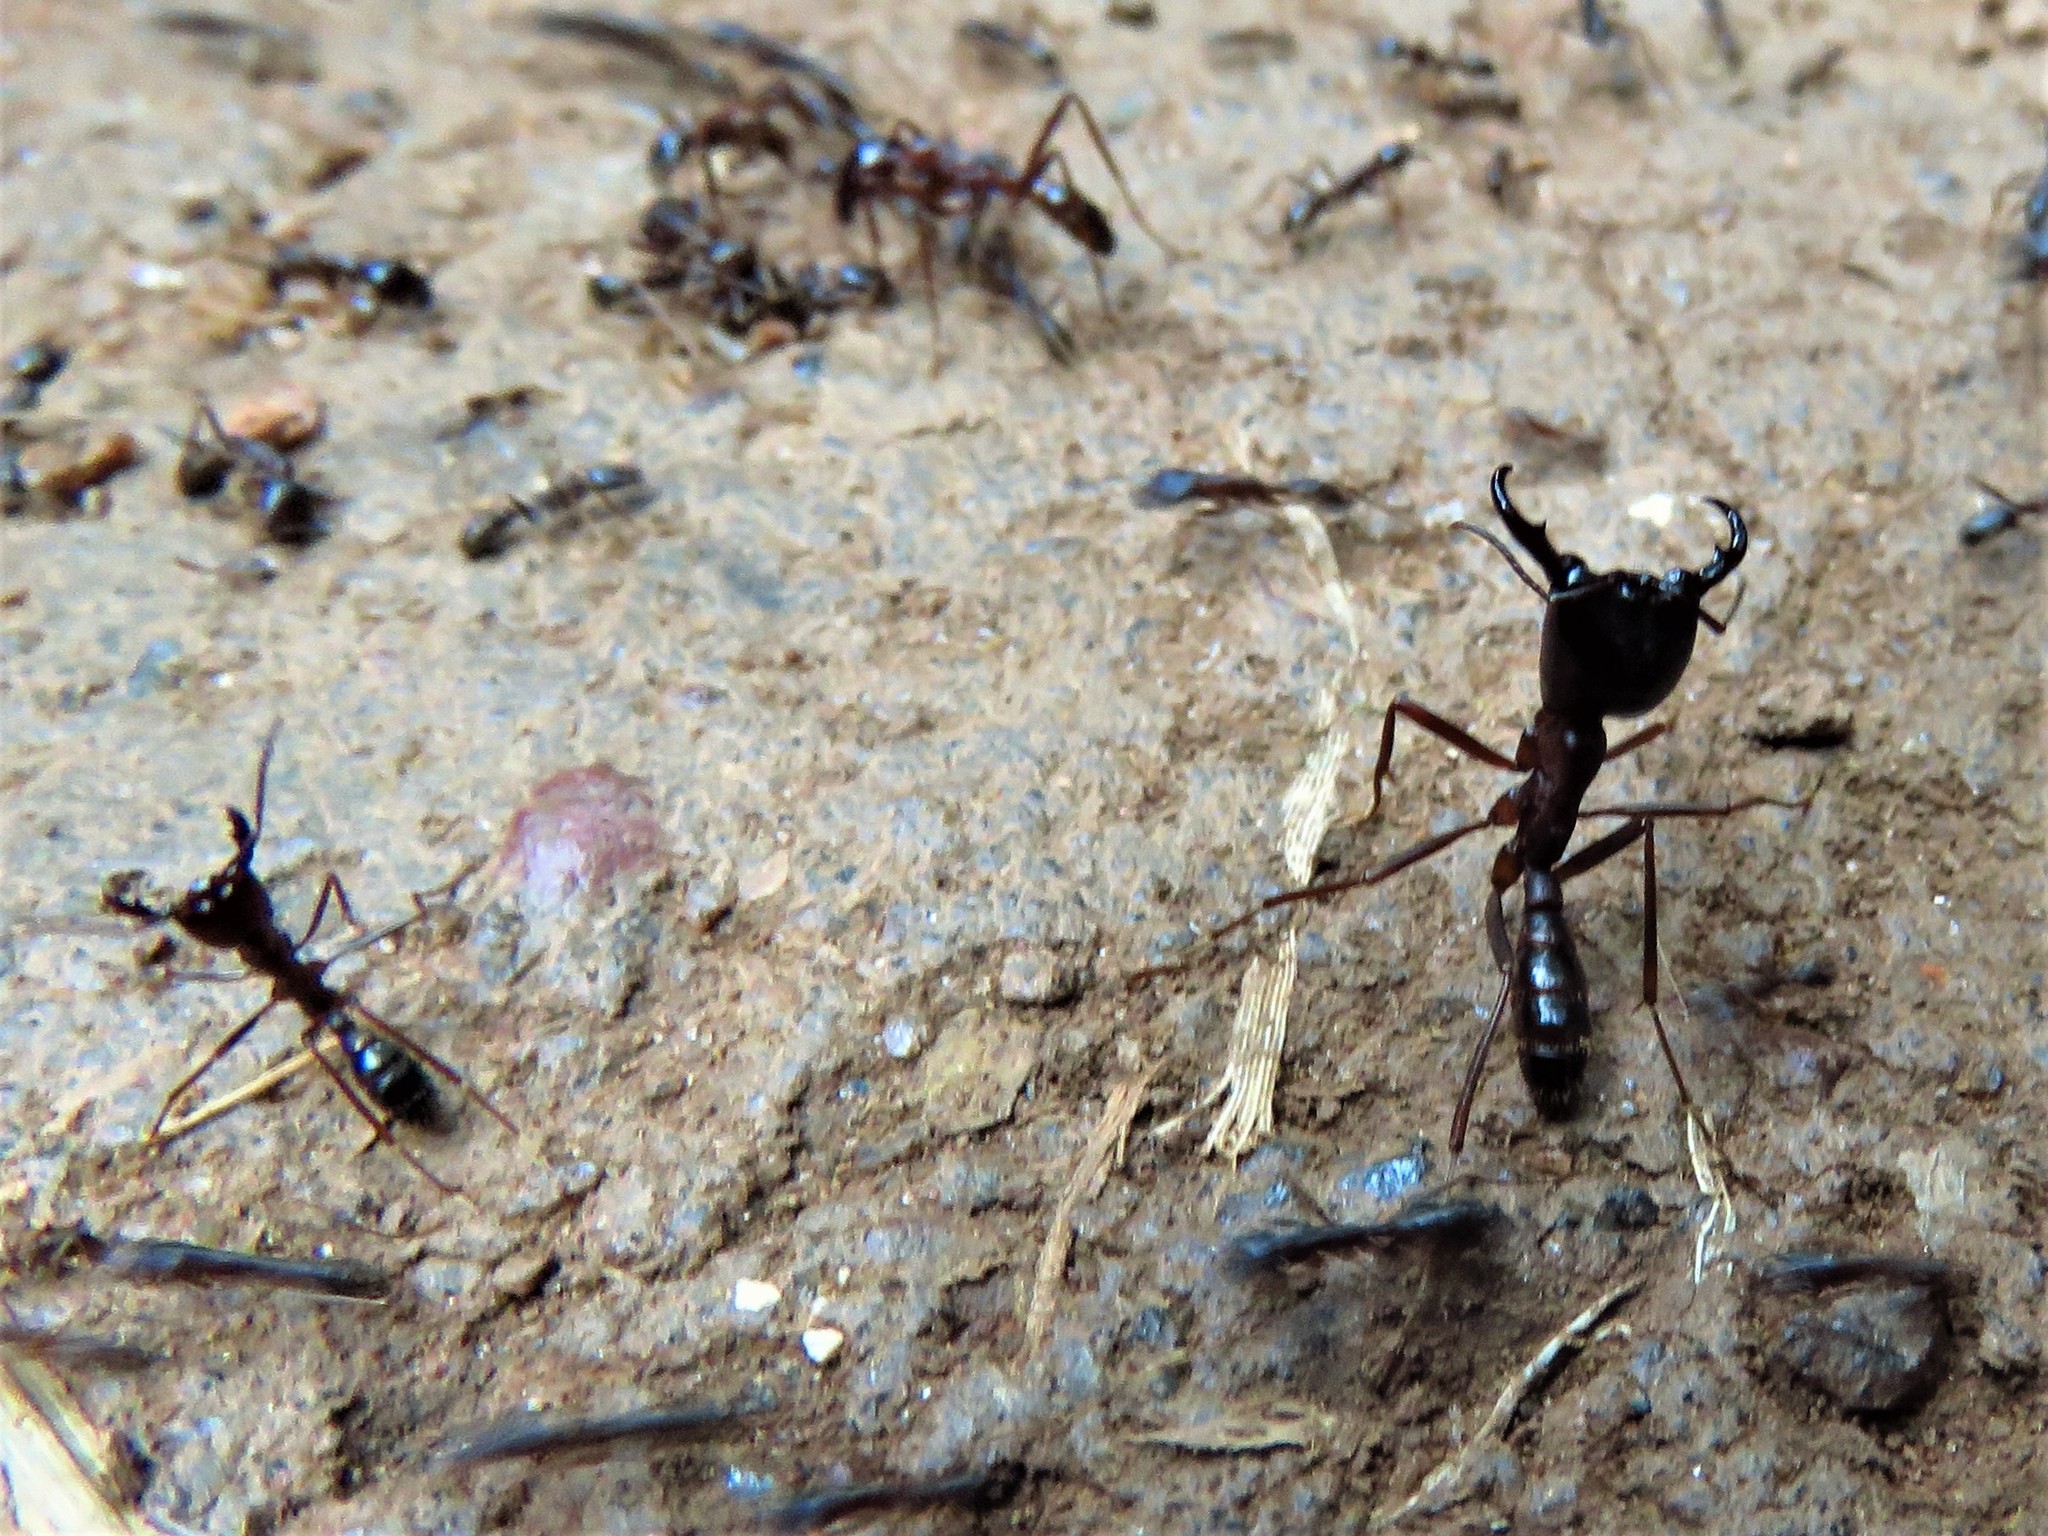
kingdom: Animalia
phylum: Arthropoda
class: Insecta
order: Hymenoptera
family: Formicidae
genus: Dorylus
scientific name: Dorylus nigricans
